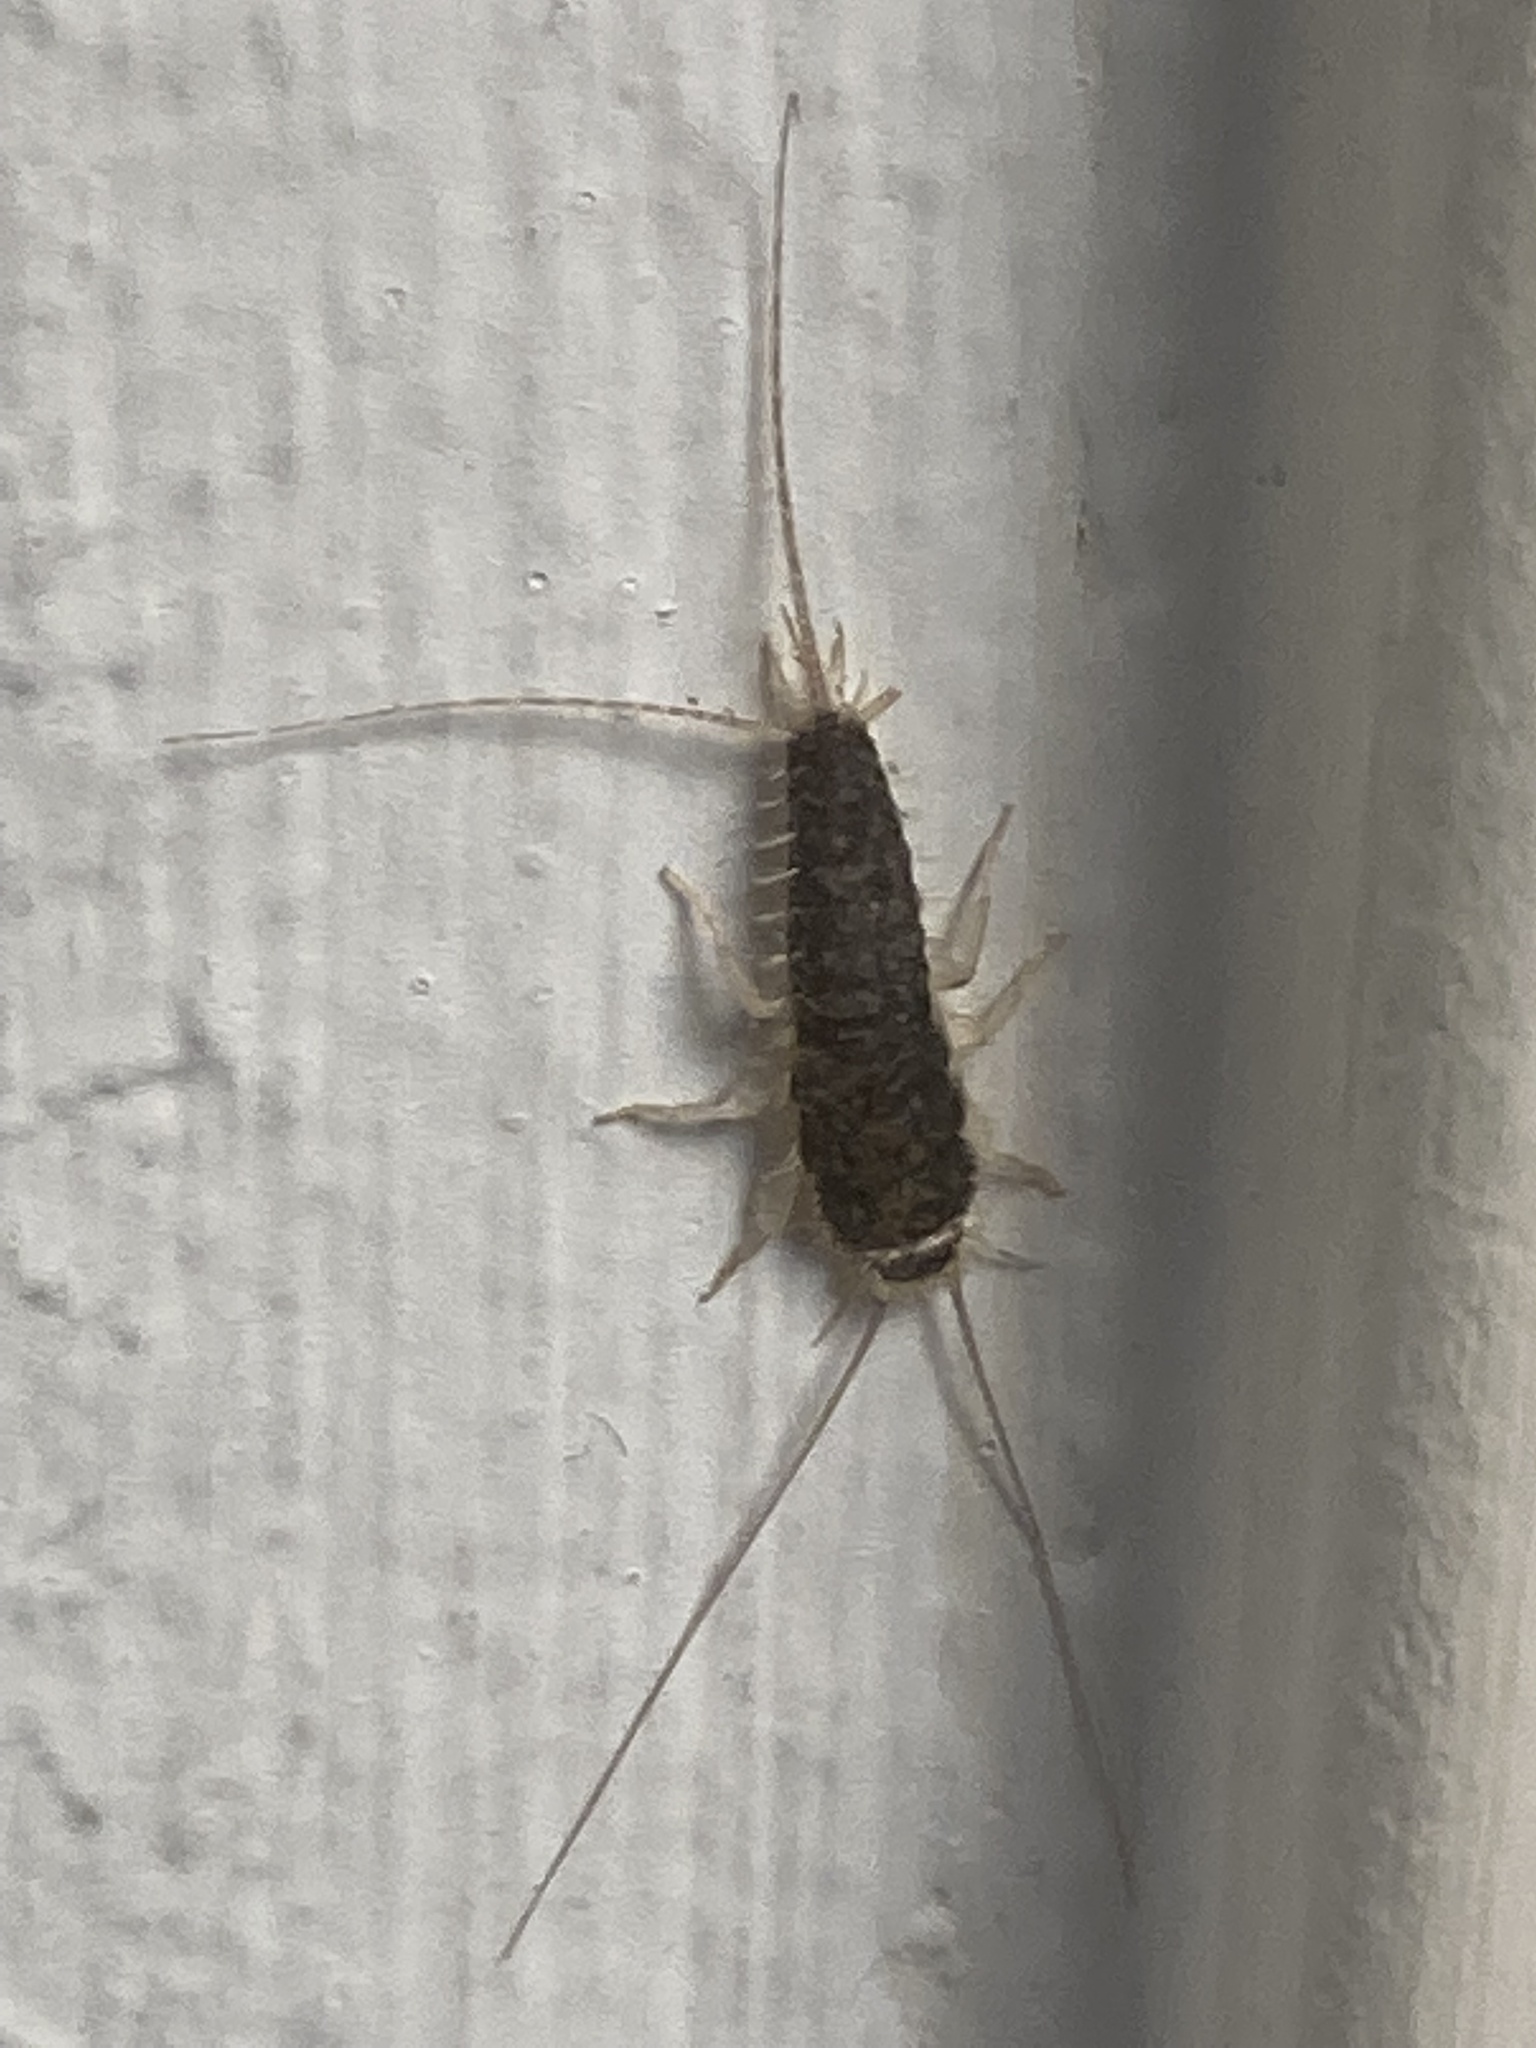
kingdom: Animalia
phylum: Arthropoda
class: Insecta
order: Zygentoma
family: Lepismatidae
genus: Ctenolepisma
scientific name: Ctenolepisma longicaudatum
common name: Silverfish
